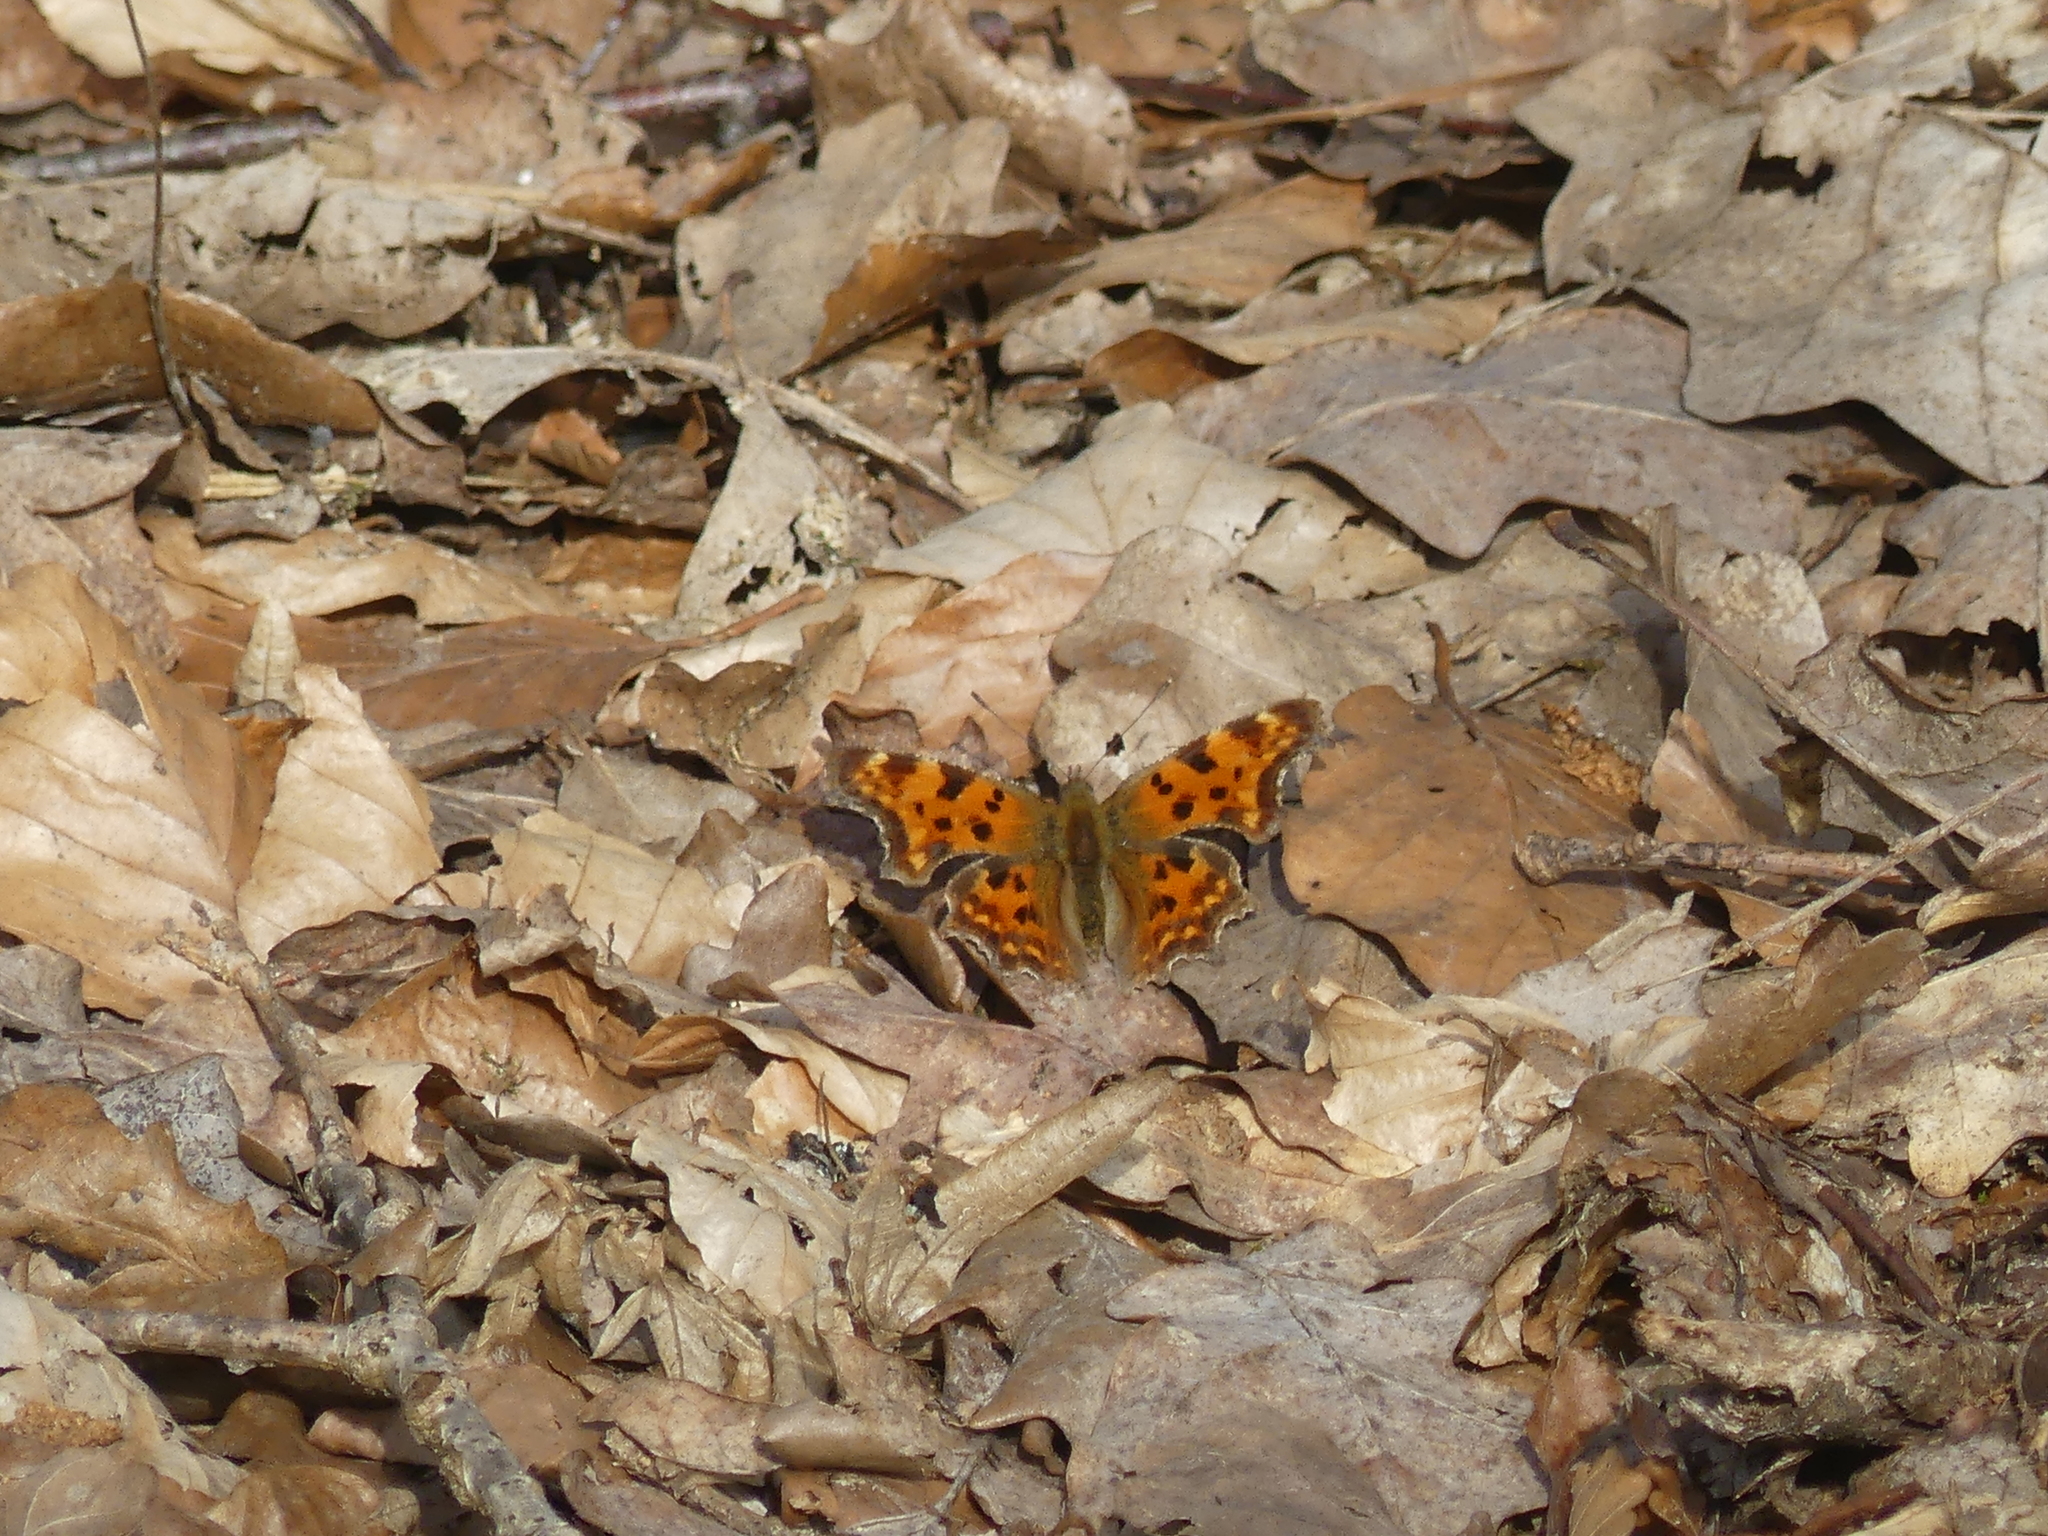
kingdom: Animalia
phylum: Arthropoda
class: Insecta
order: Lepidoptera
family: Nymphalidae
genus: Polygonia
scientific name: Polygonia c-album
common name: Comma
